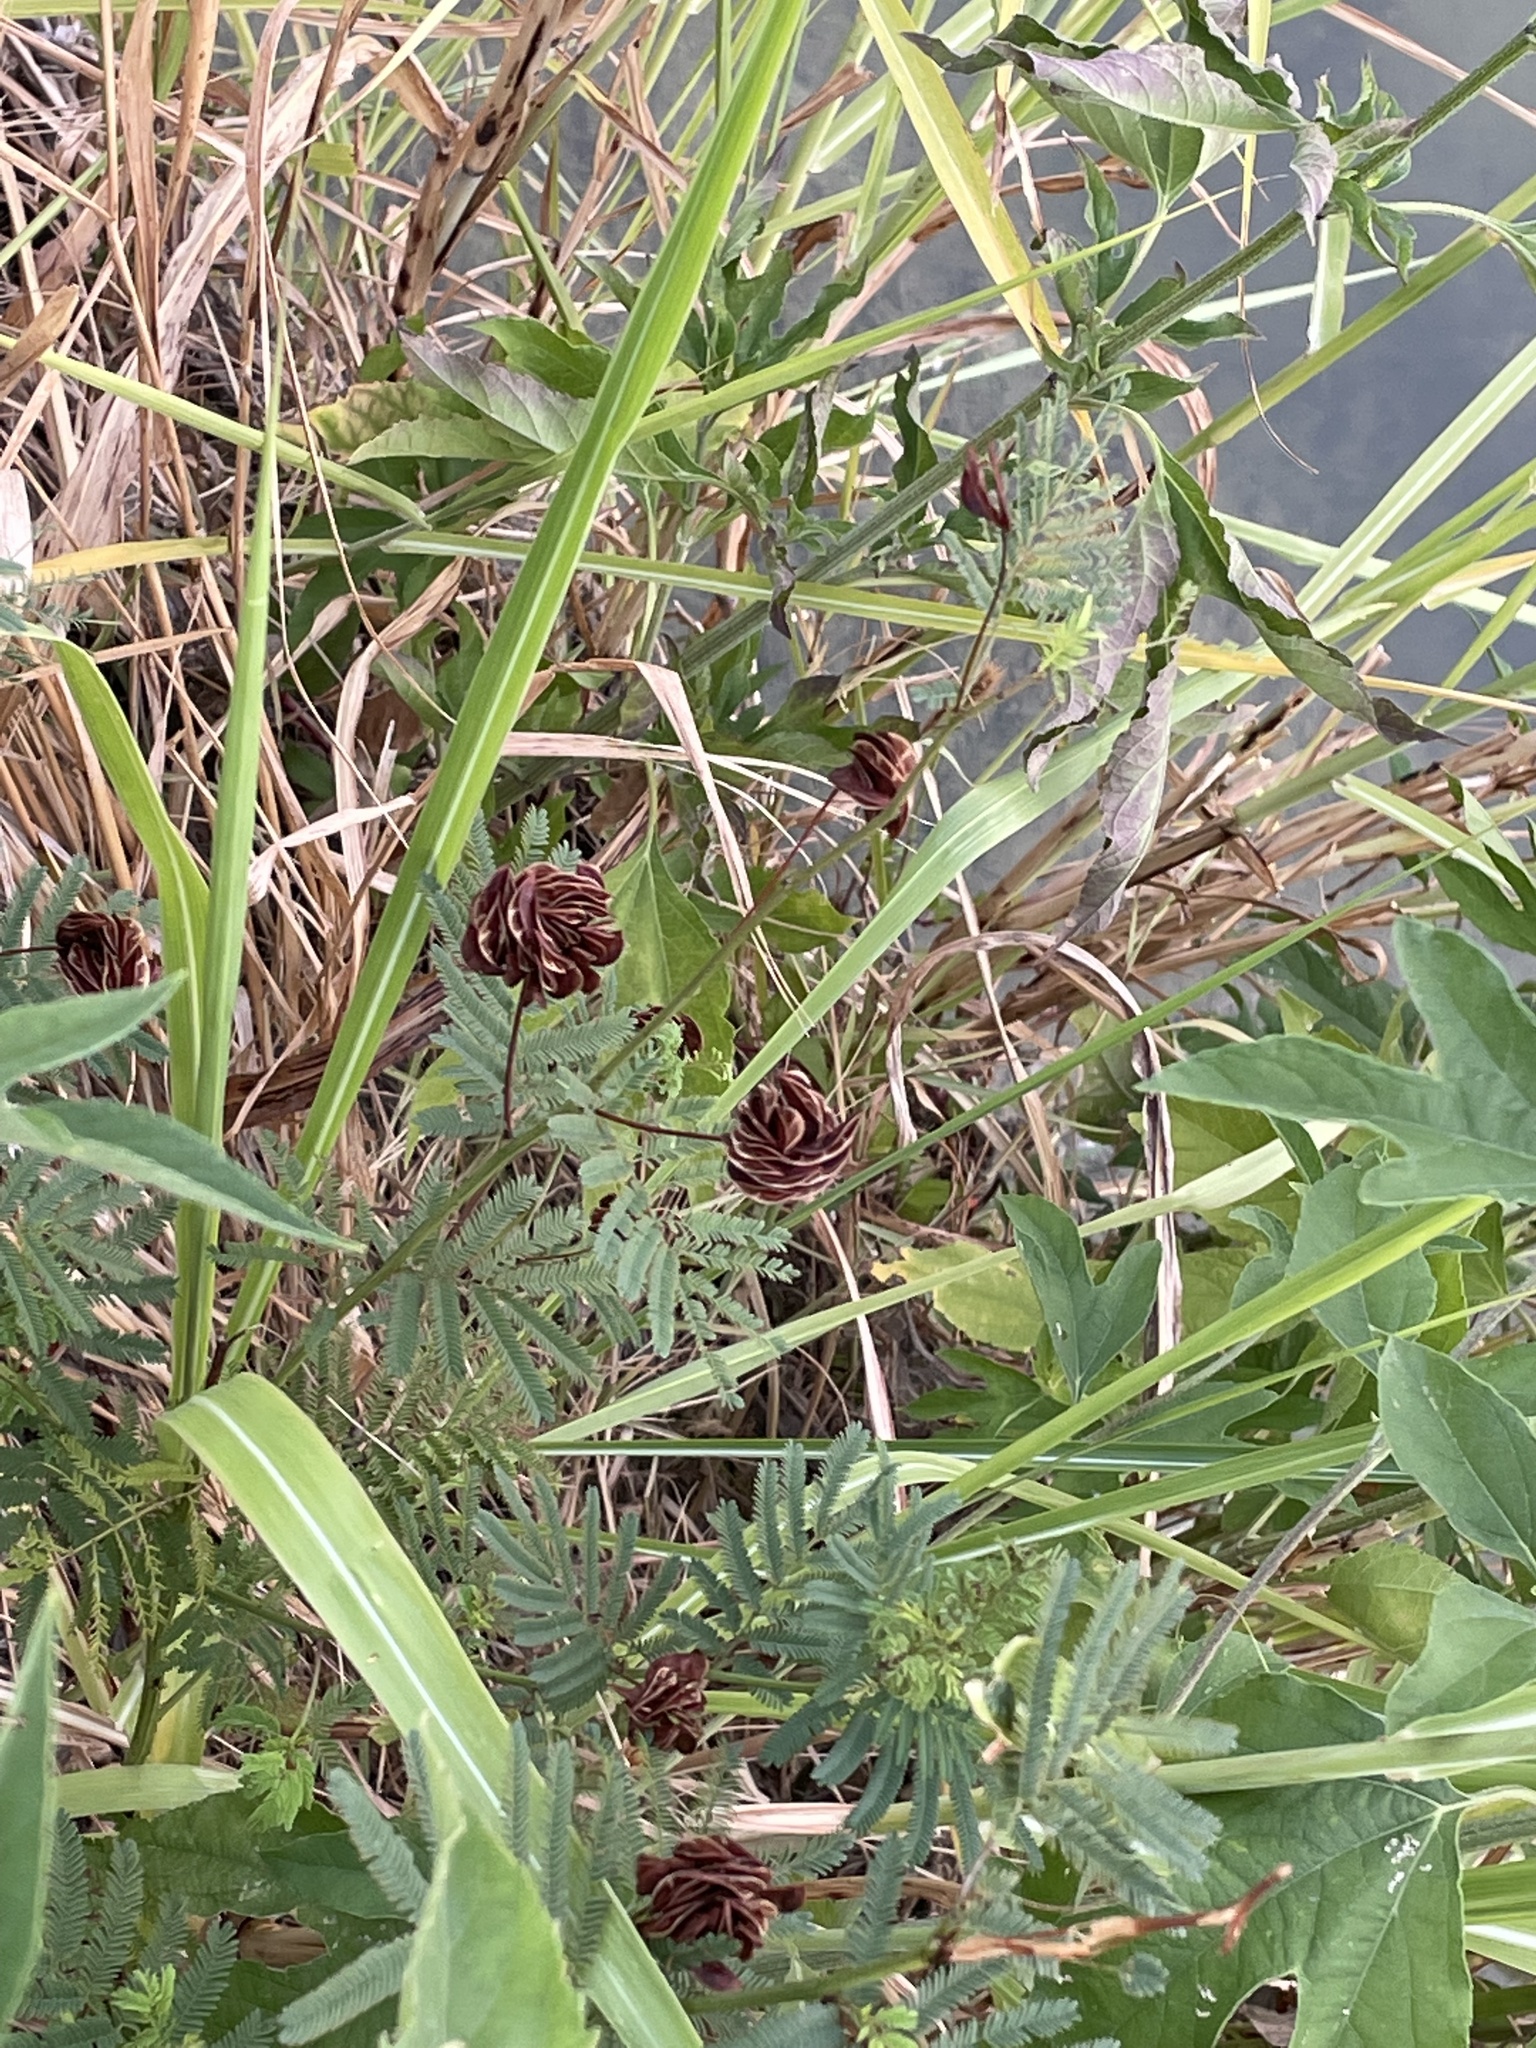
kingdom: Plantae
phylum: Tracheophyta
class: Magnoliopsida
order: Fabales
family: Fabaceae
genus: Desmanthus
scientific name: Desmanthus illinoensis
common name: Illinois bundle-flower
